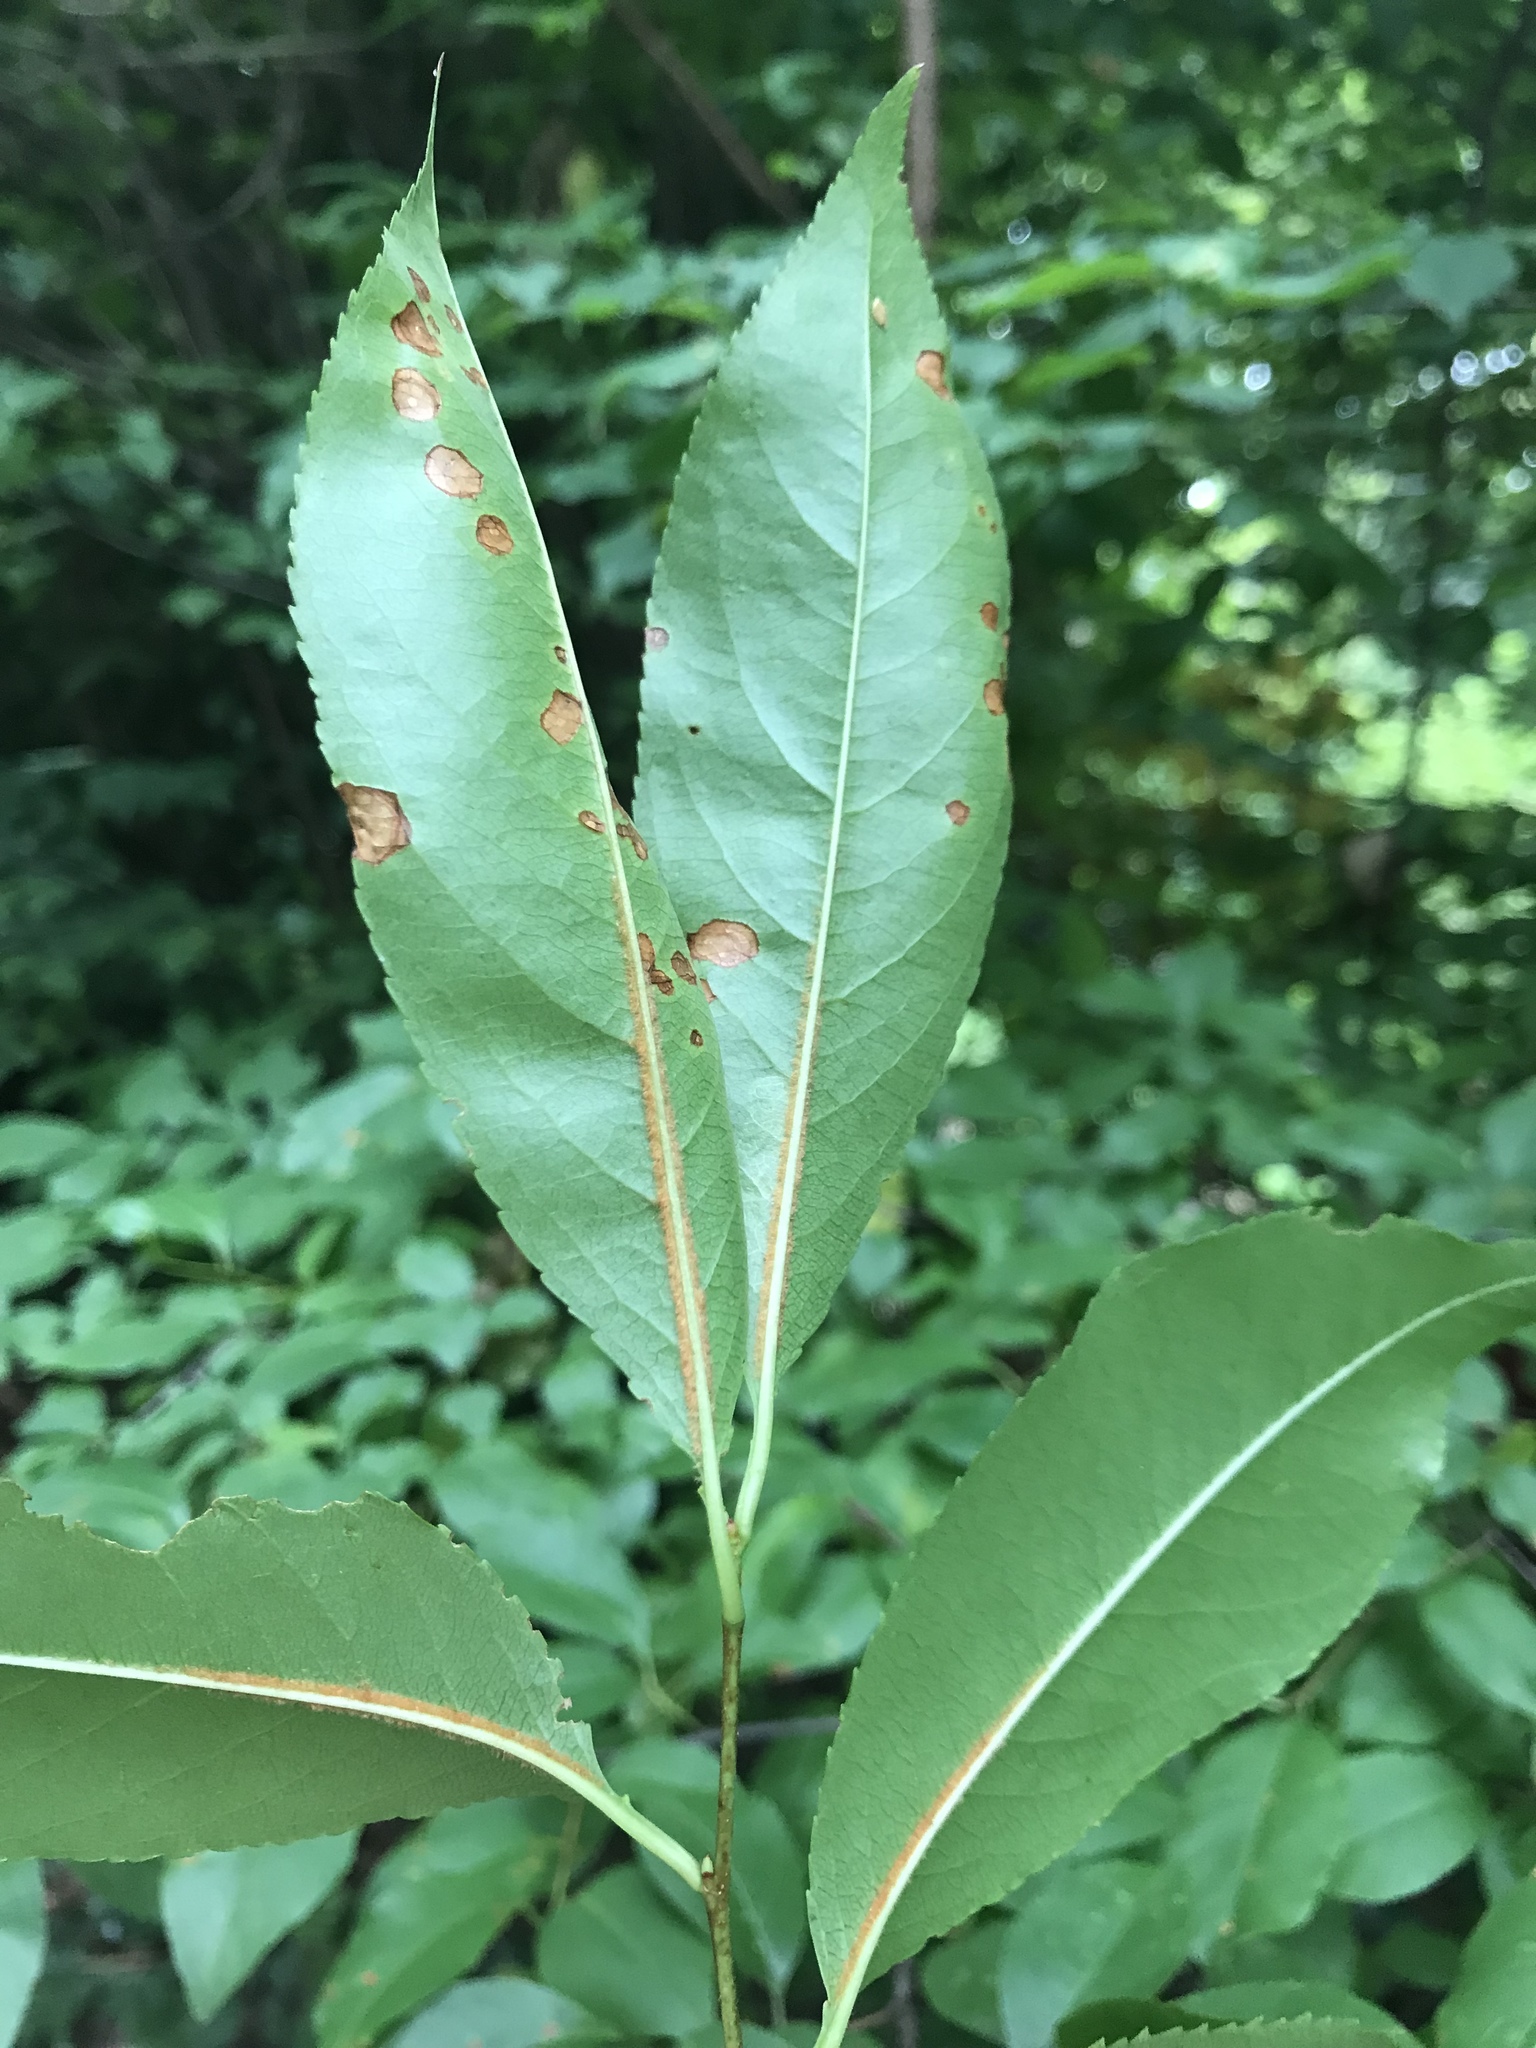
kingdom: Plantae
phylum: Tracheophyta
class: Magnoliopsida
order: Rosales
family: Rosaceae
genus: Prunus
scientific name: Prunus serotina
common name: Black cherry
